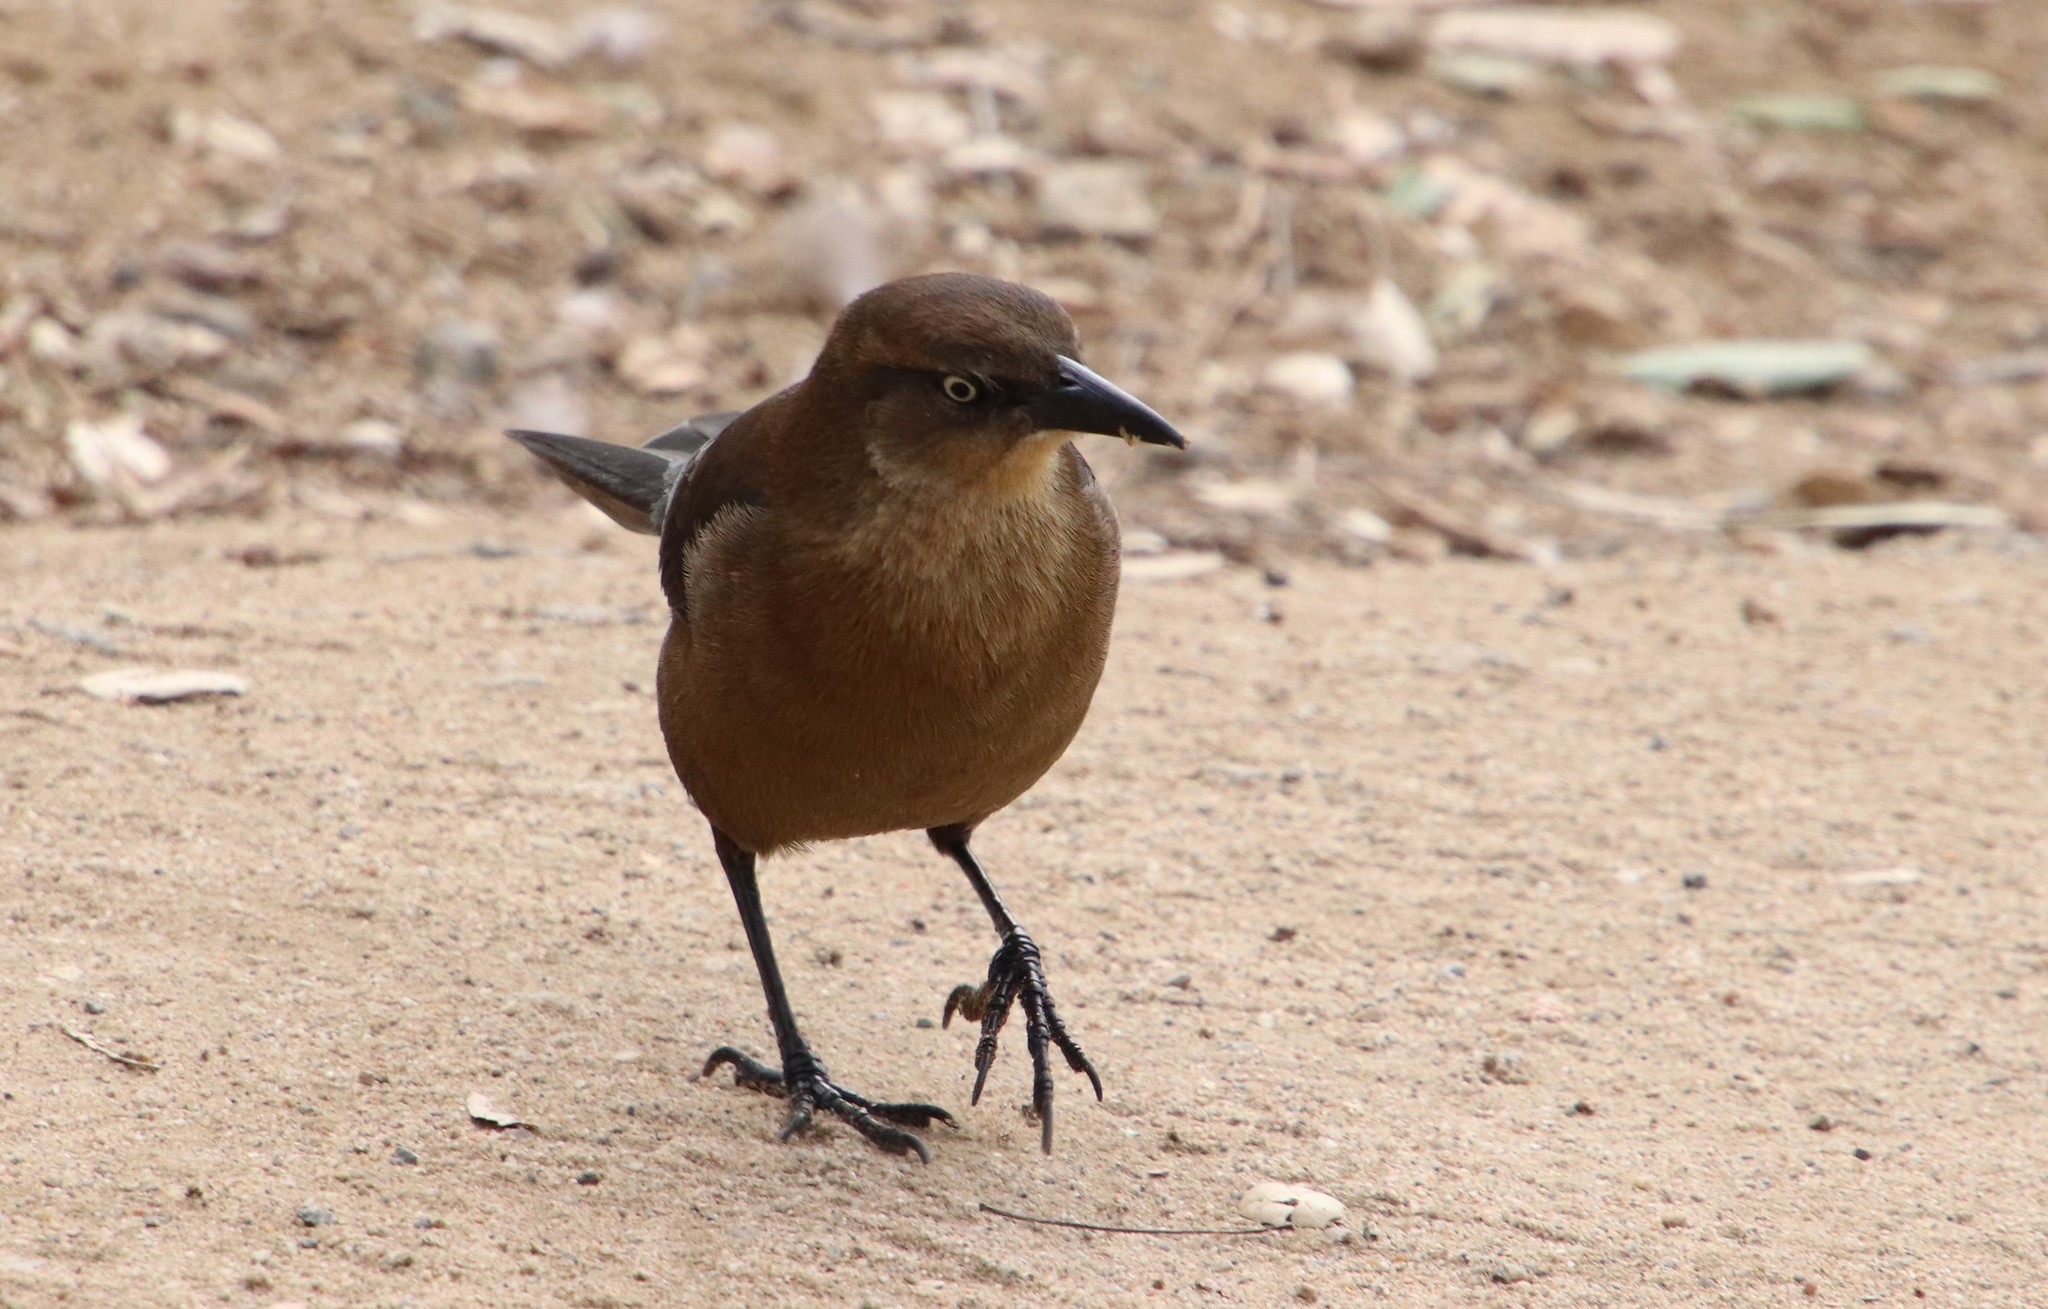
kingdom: Animalia
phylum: Chordata
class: Aves
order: Passeriformes
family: Icteridae
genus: Quiscalus
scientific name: Quiscalus mexicanus
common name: Great-tailed grackle
